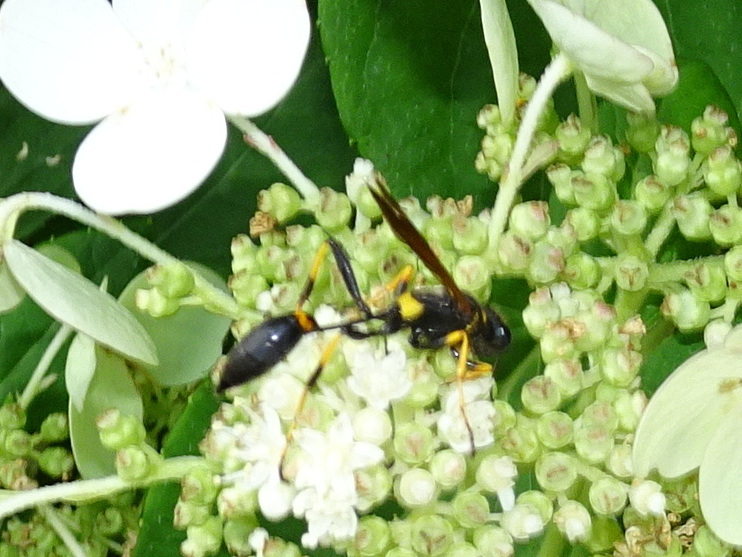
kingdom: Animalia
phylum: Arthropoda
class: Insecta
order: Hymenoptera
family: Sphecidae
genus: Sceliphron
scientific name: Sceliphron caementarium
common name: Mud dauber
